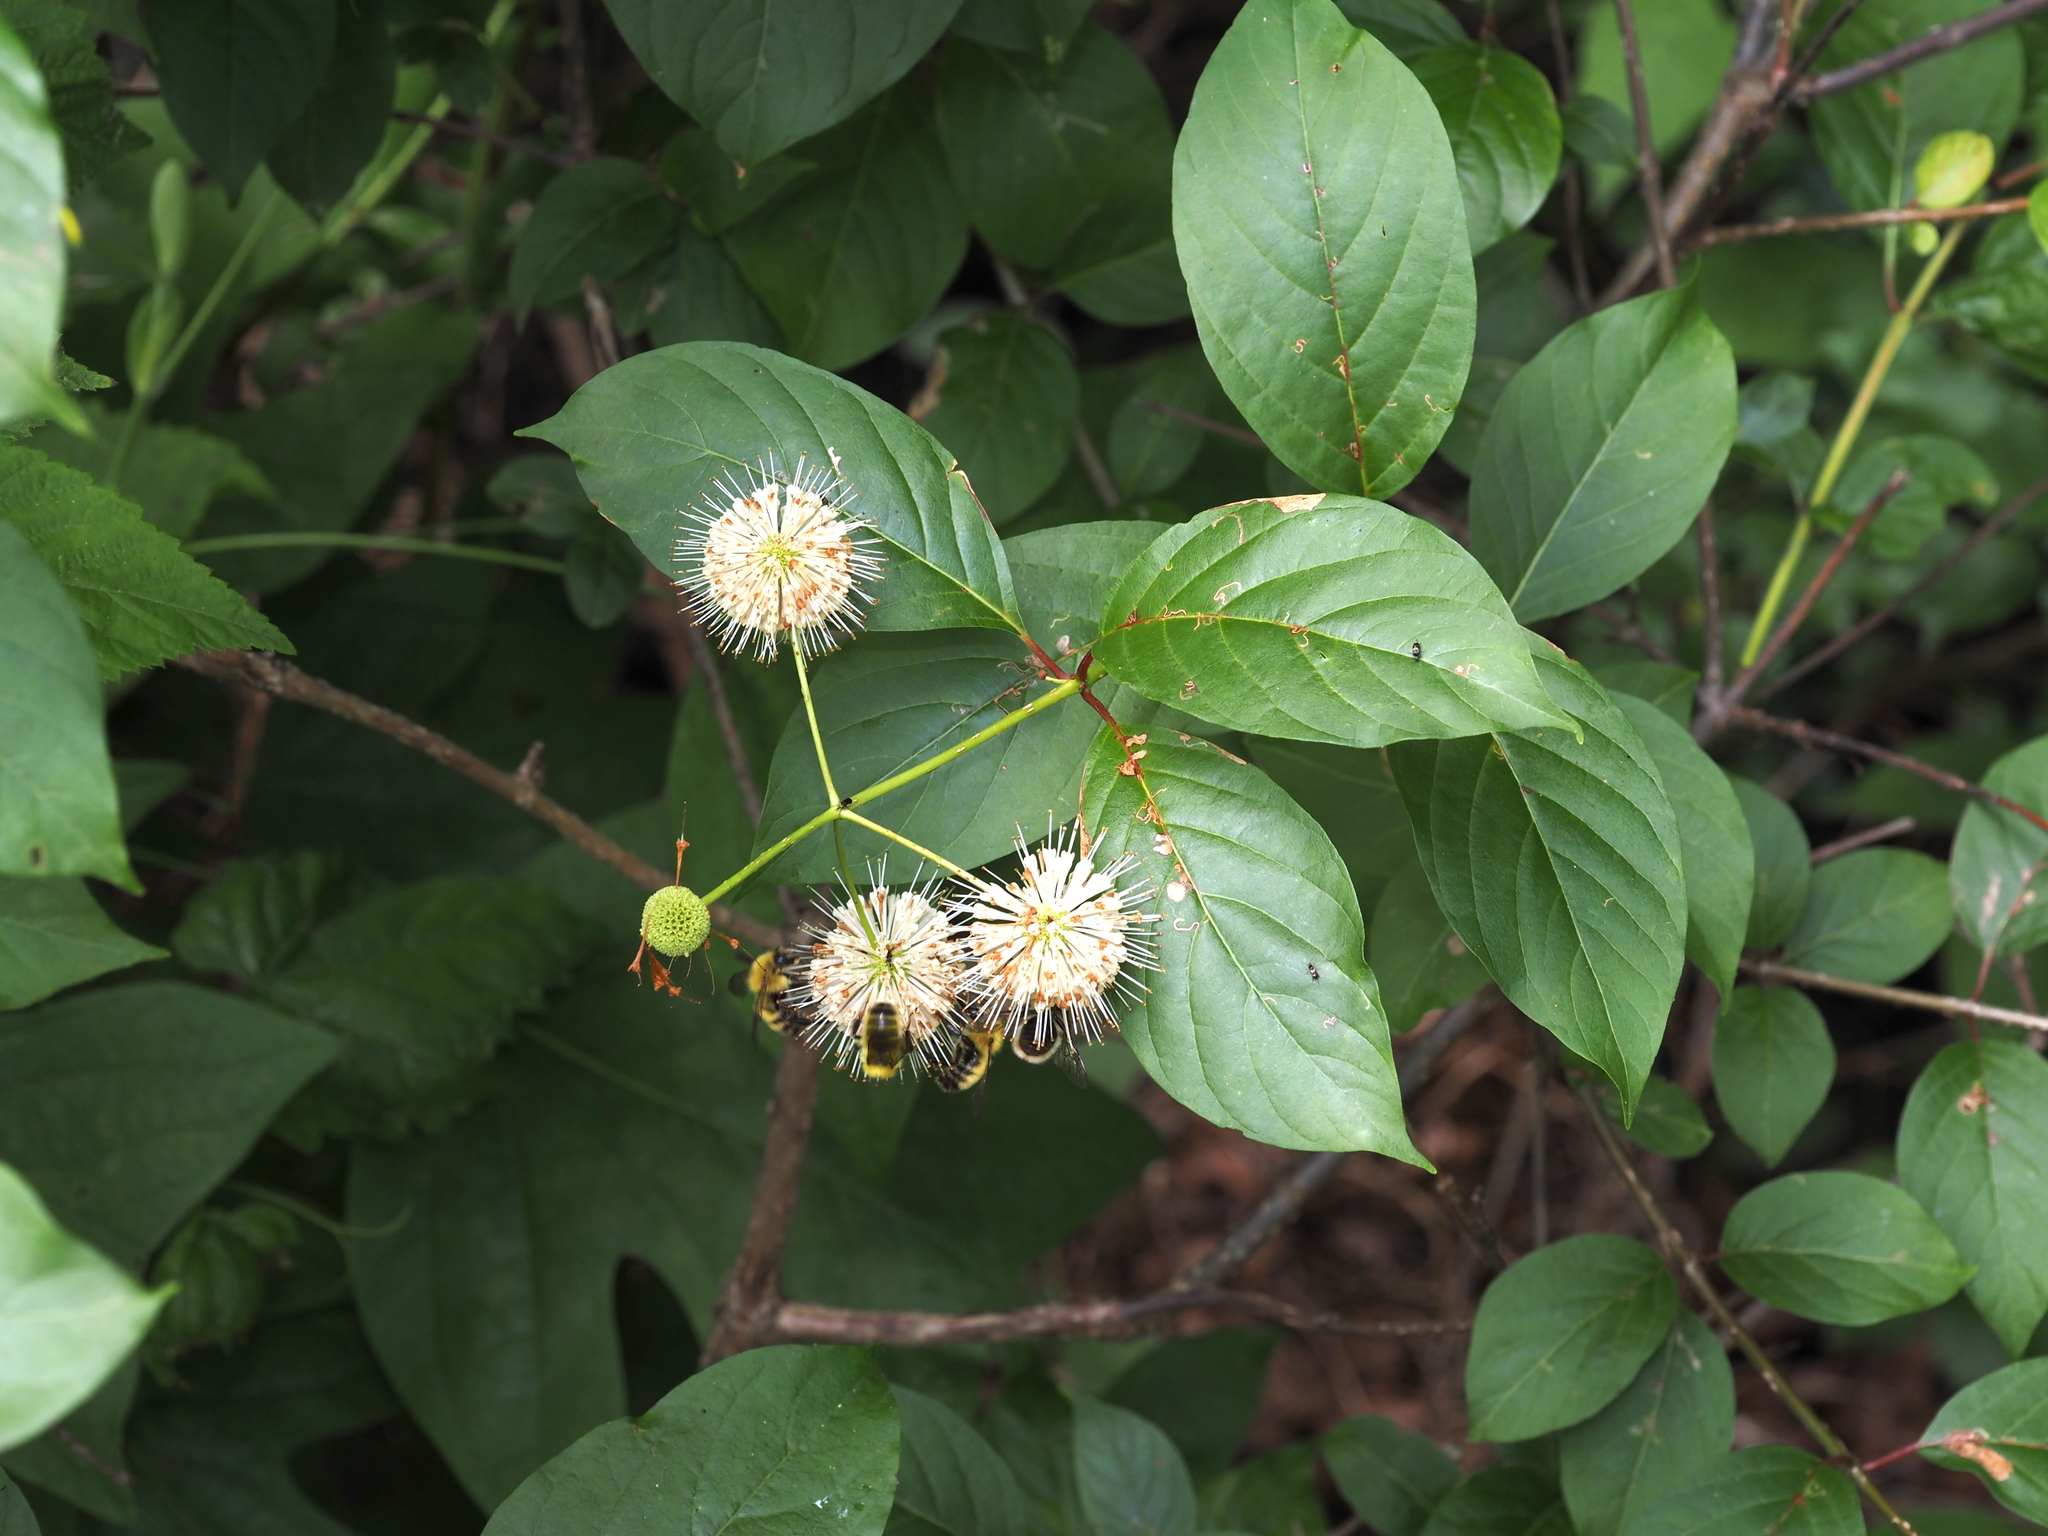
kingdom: Plantae
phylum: Tracheophyta
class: Magnoliopsida
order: Gentianales
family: Rubiaceae
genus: Cephalanthus
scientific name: Cephalanthus occidentalis
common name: Button-willow
